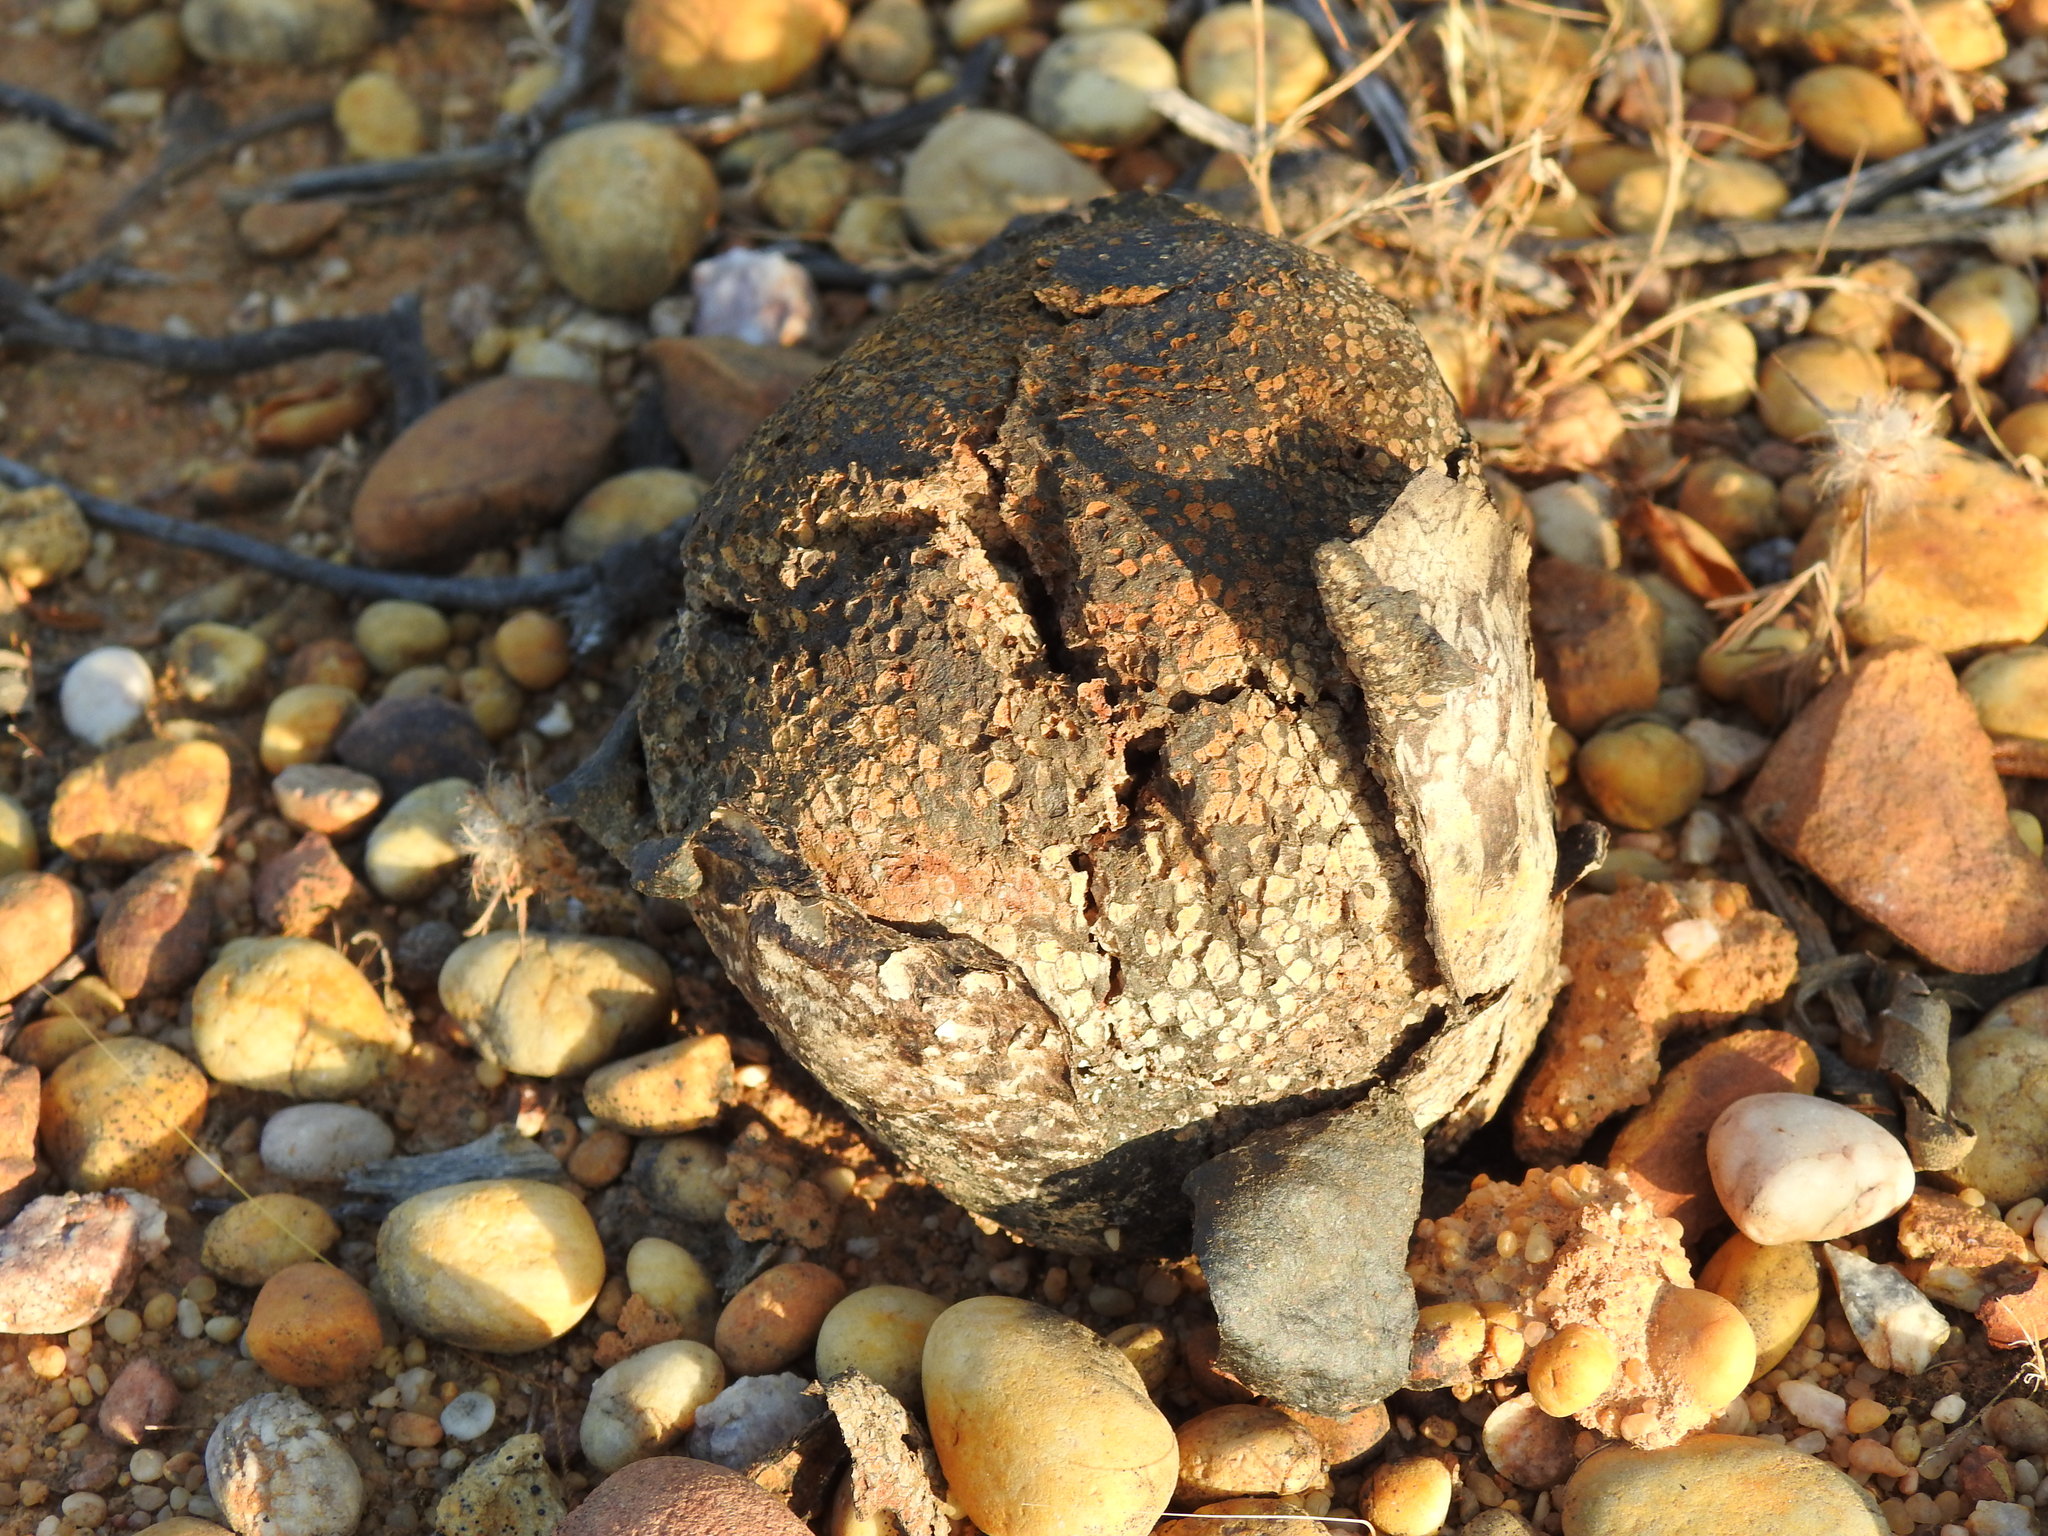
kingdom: Fungi
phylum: Basidiomycota
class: Agaricomycetes
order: Boletales
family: Sclerodermataceae
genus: Pisolithus
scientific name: Pisolithus arhizus
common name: Dyeball
